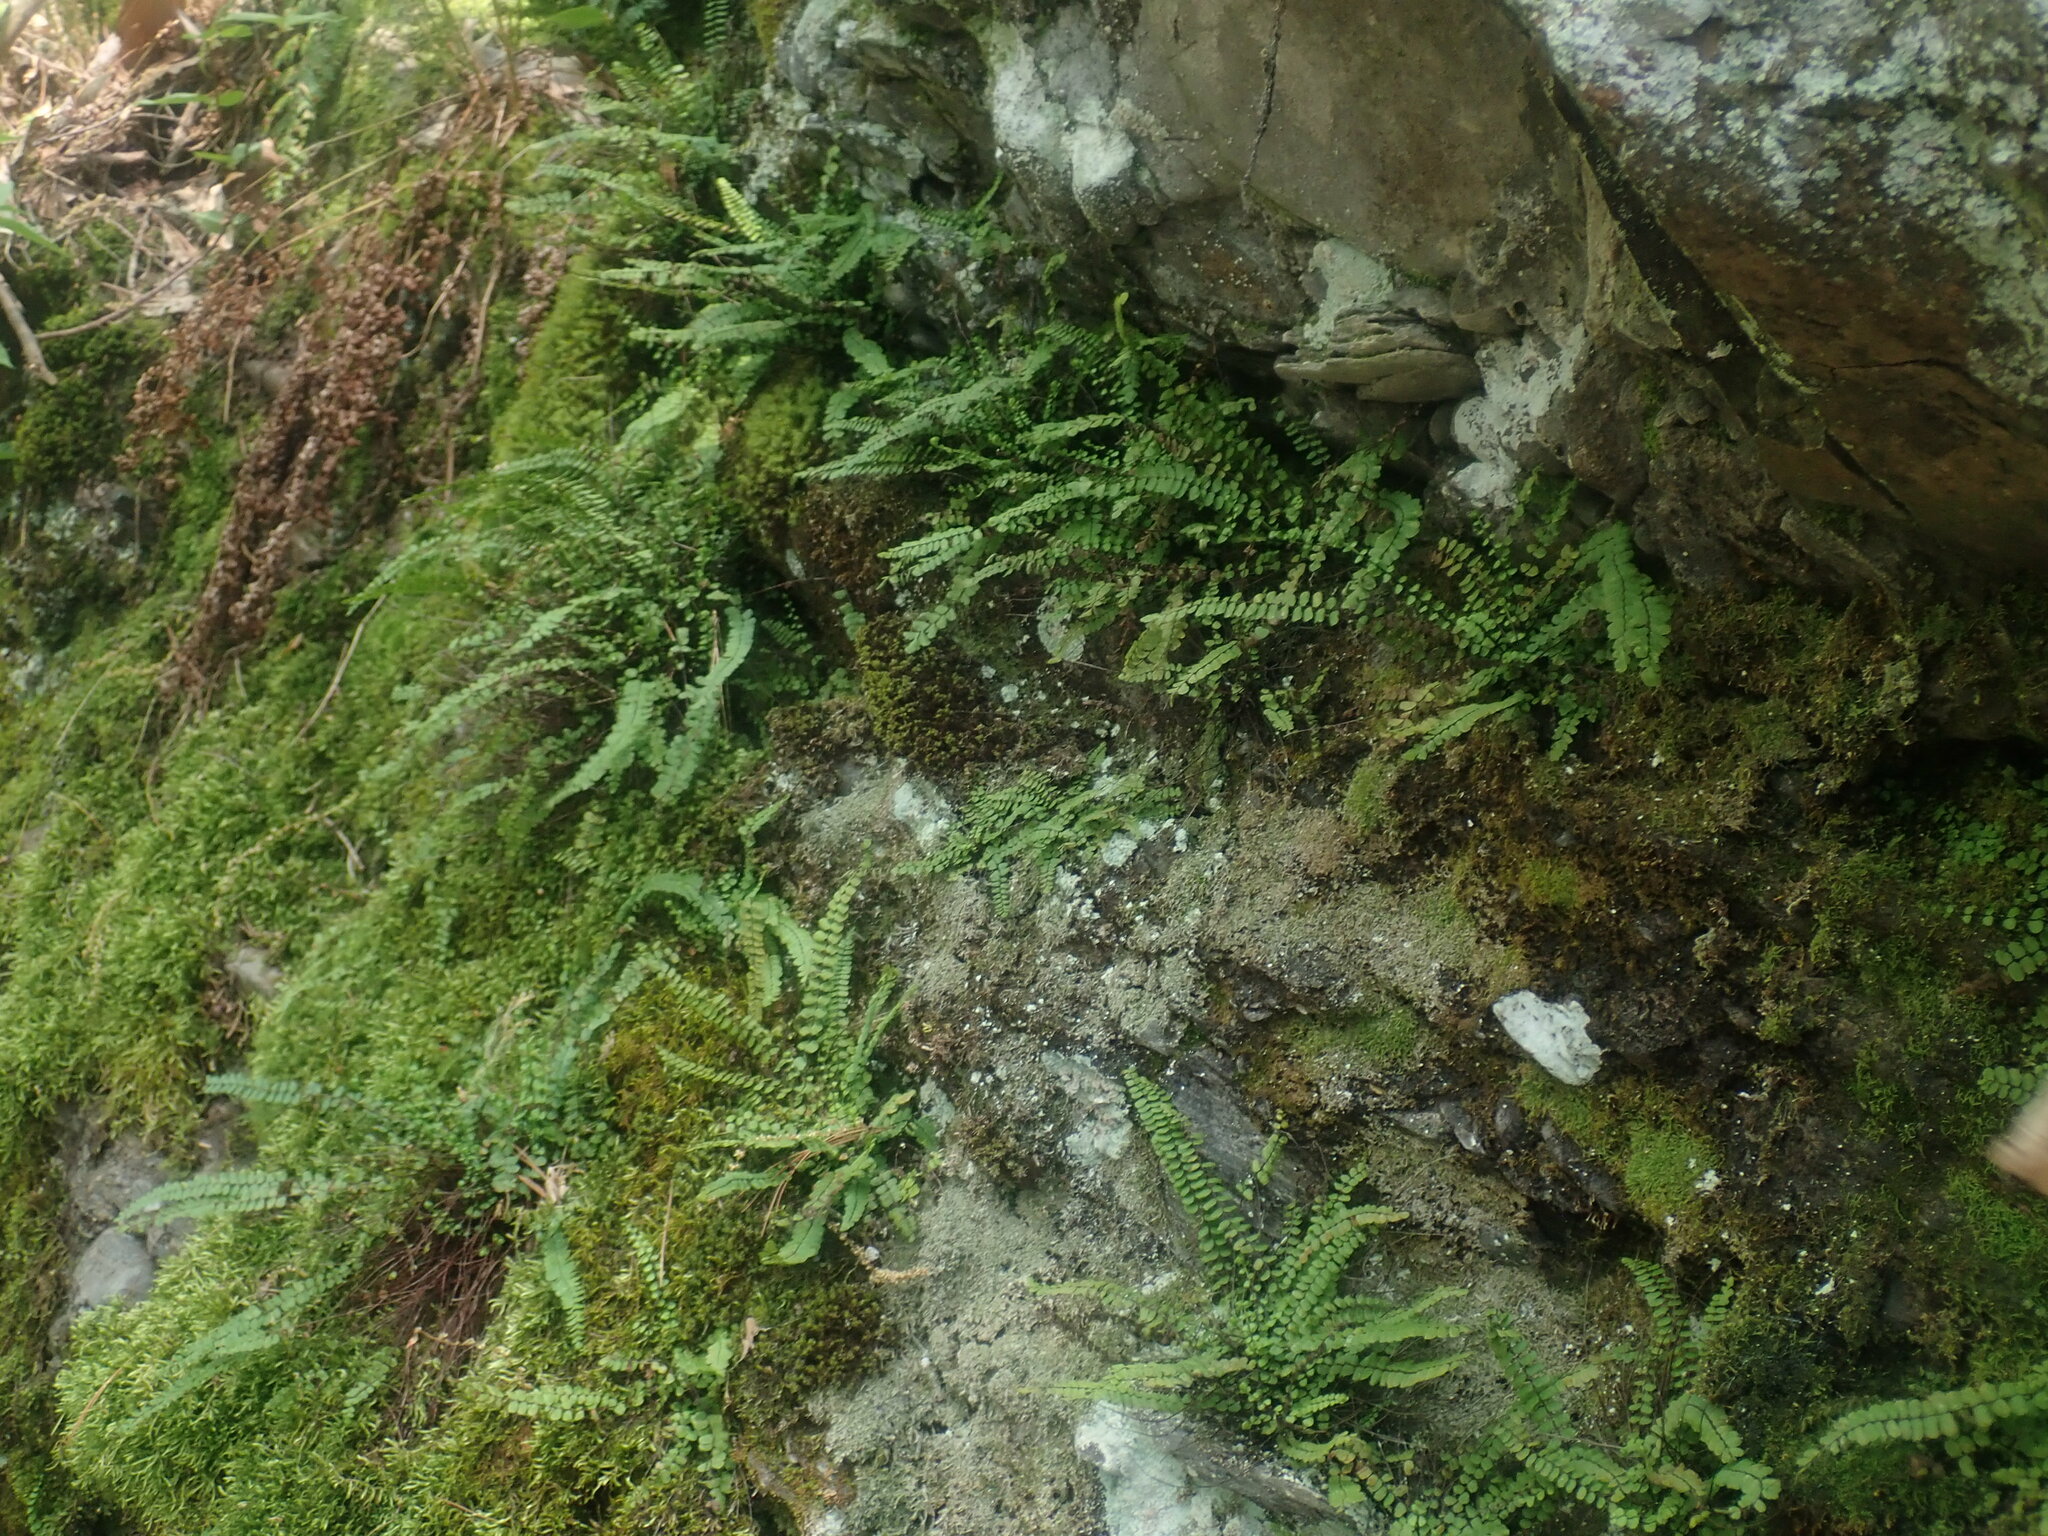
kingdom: Plantae
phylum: Tracheophyta
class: Polypodiopsida
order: Polypodiales
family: Aspleniaceae
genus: Asplenium
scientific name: Asplenium trichomanes
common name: Maidenhair spleenwort
